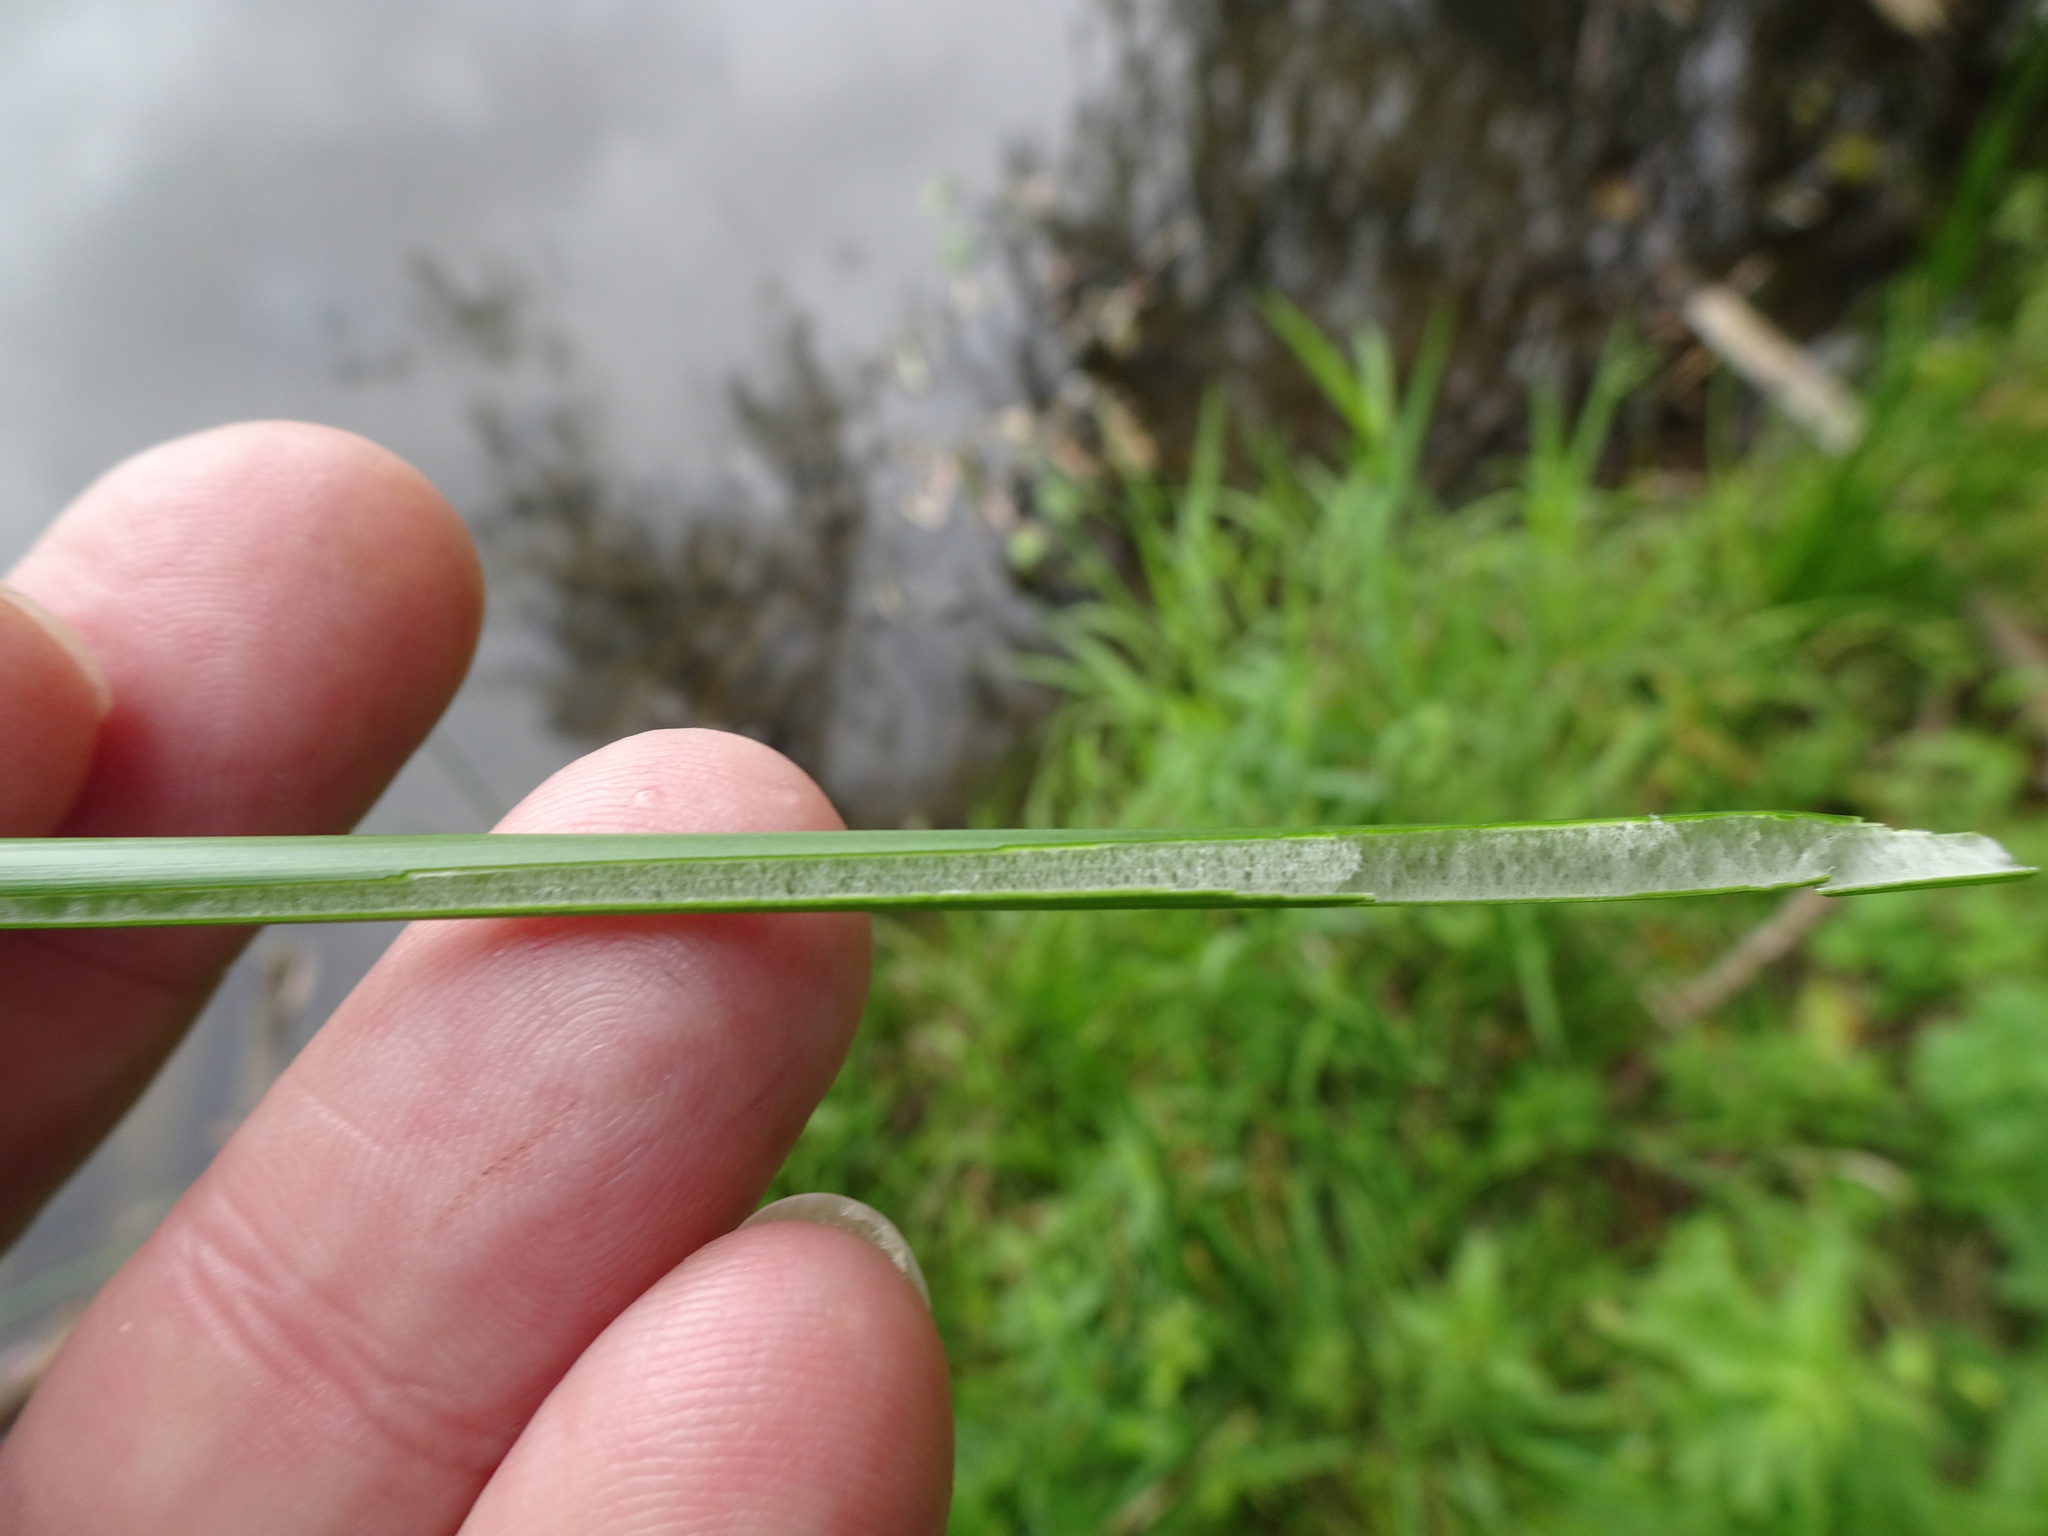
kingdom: Plantae
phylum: Tracheophyta
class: Liliopsida
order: Poales
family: Juncaceae
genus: Juncus
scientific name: Juncus effusus
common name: Soft rush
